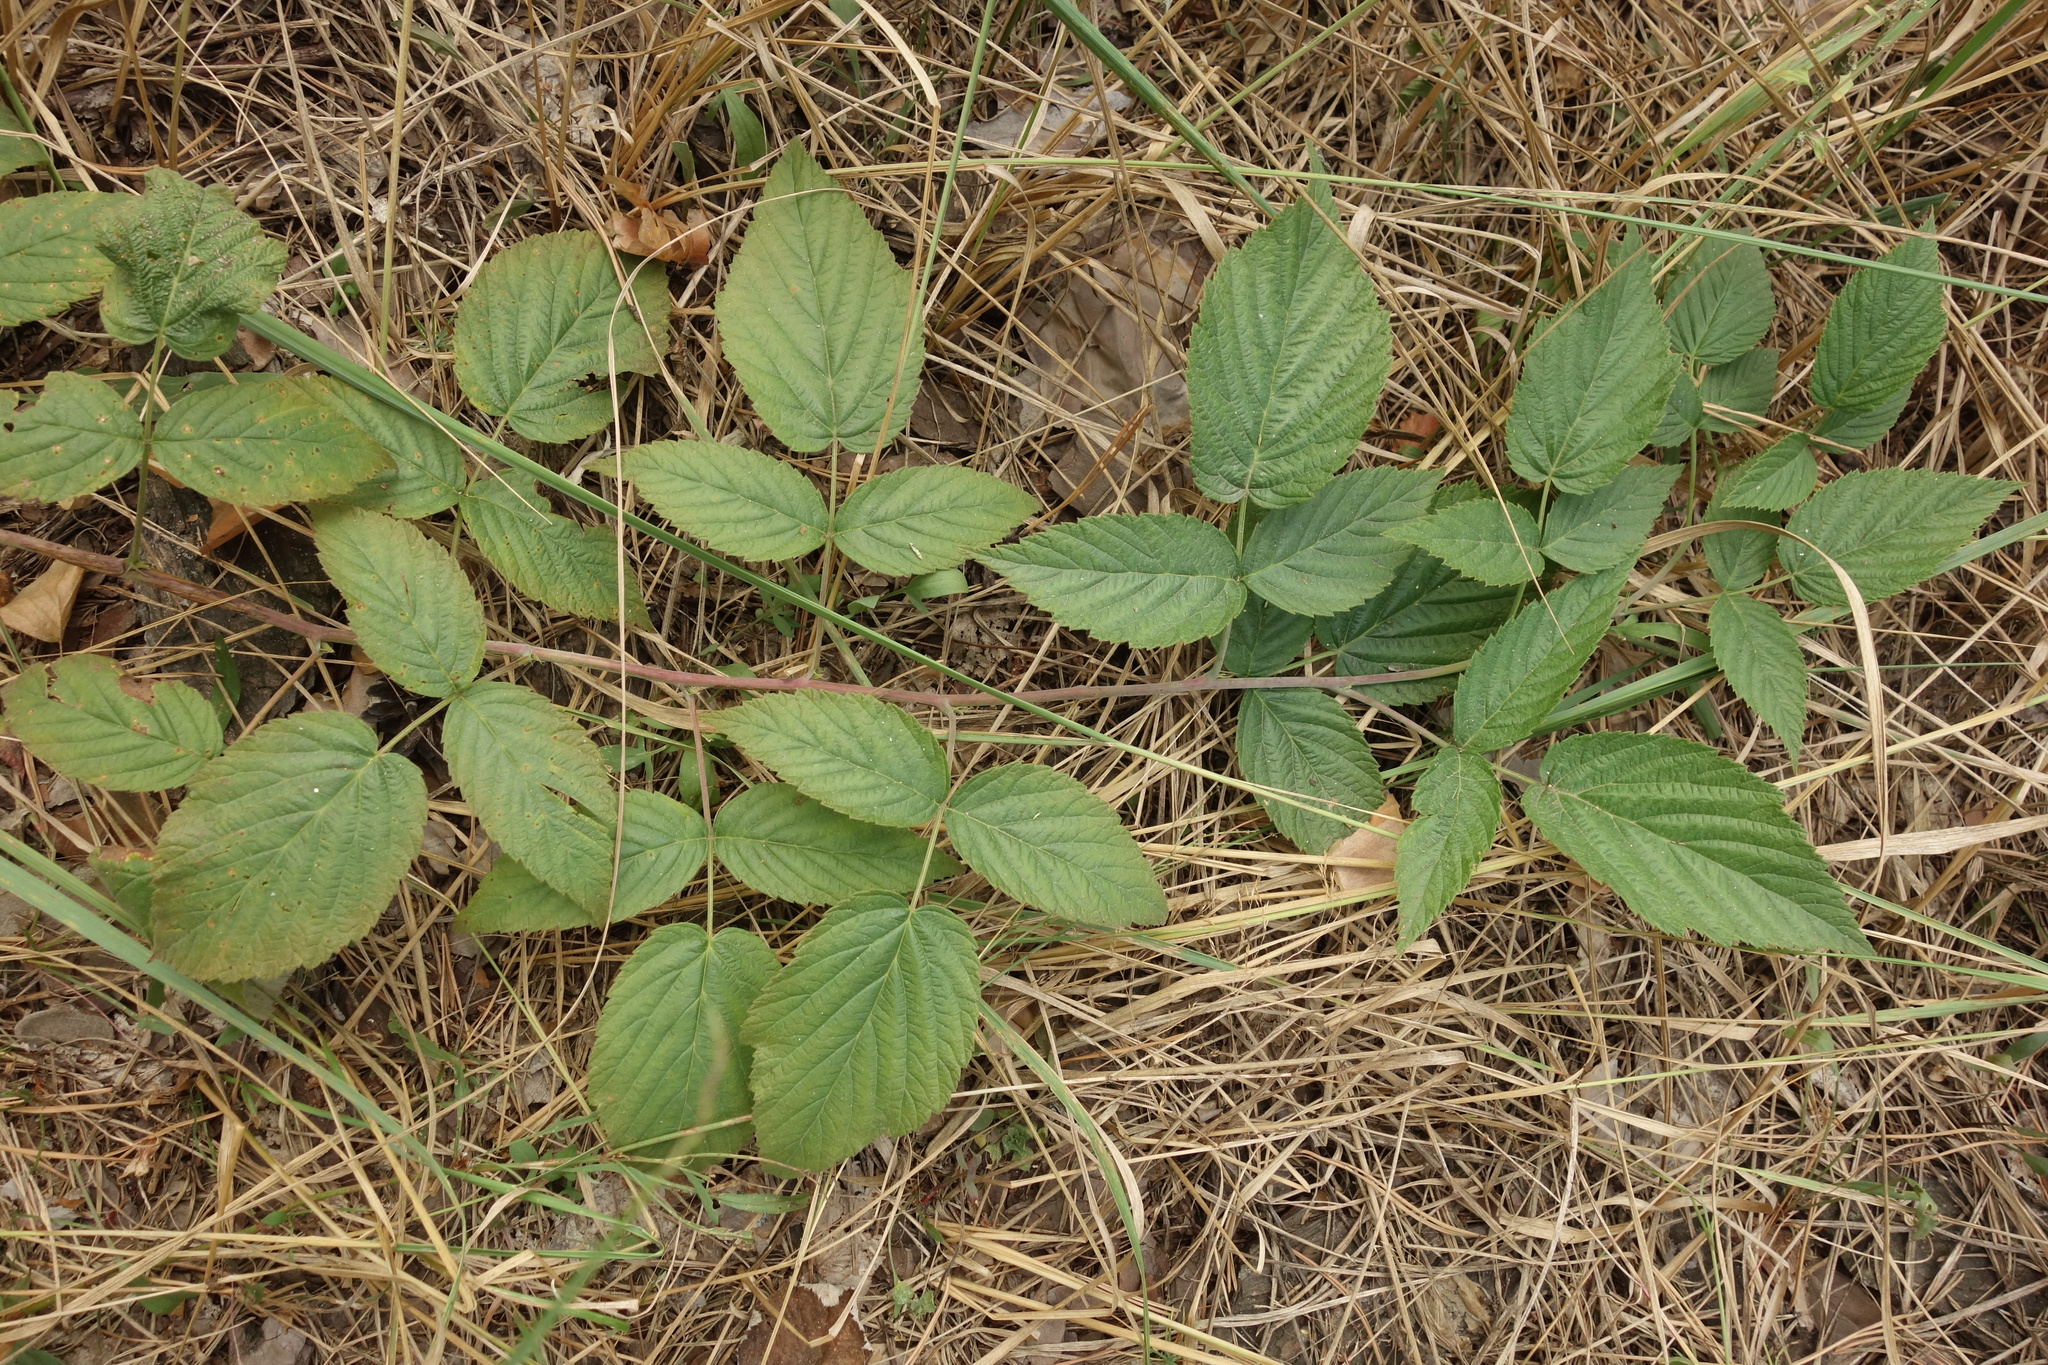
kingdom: Plantae
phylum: Tracheophyta
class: Magnoliopsida
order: Rosales
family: Rosaceae
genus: Rubus
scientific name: Rubus idaeus
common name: Raspberry
